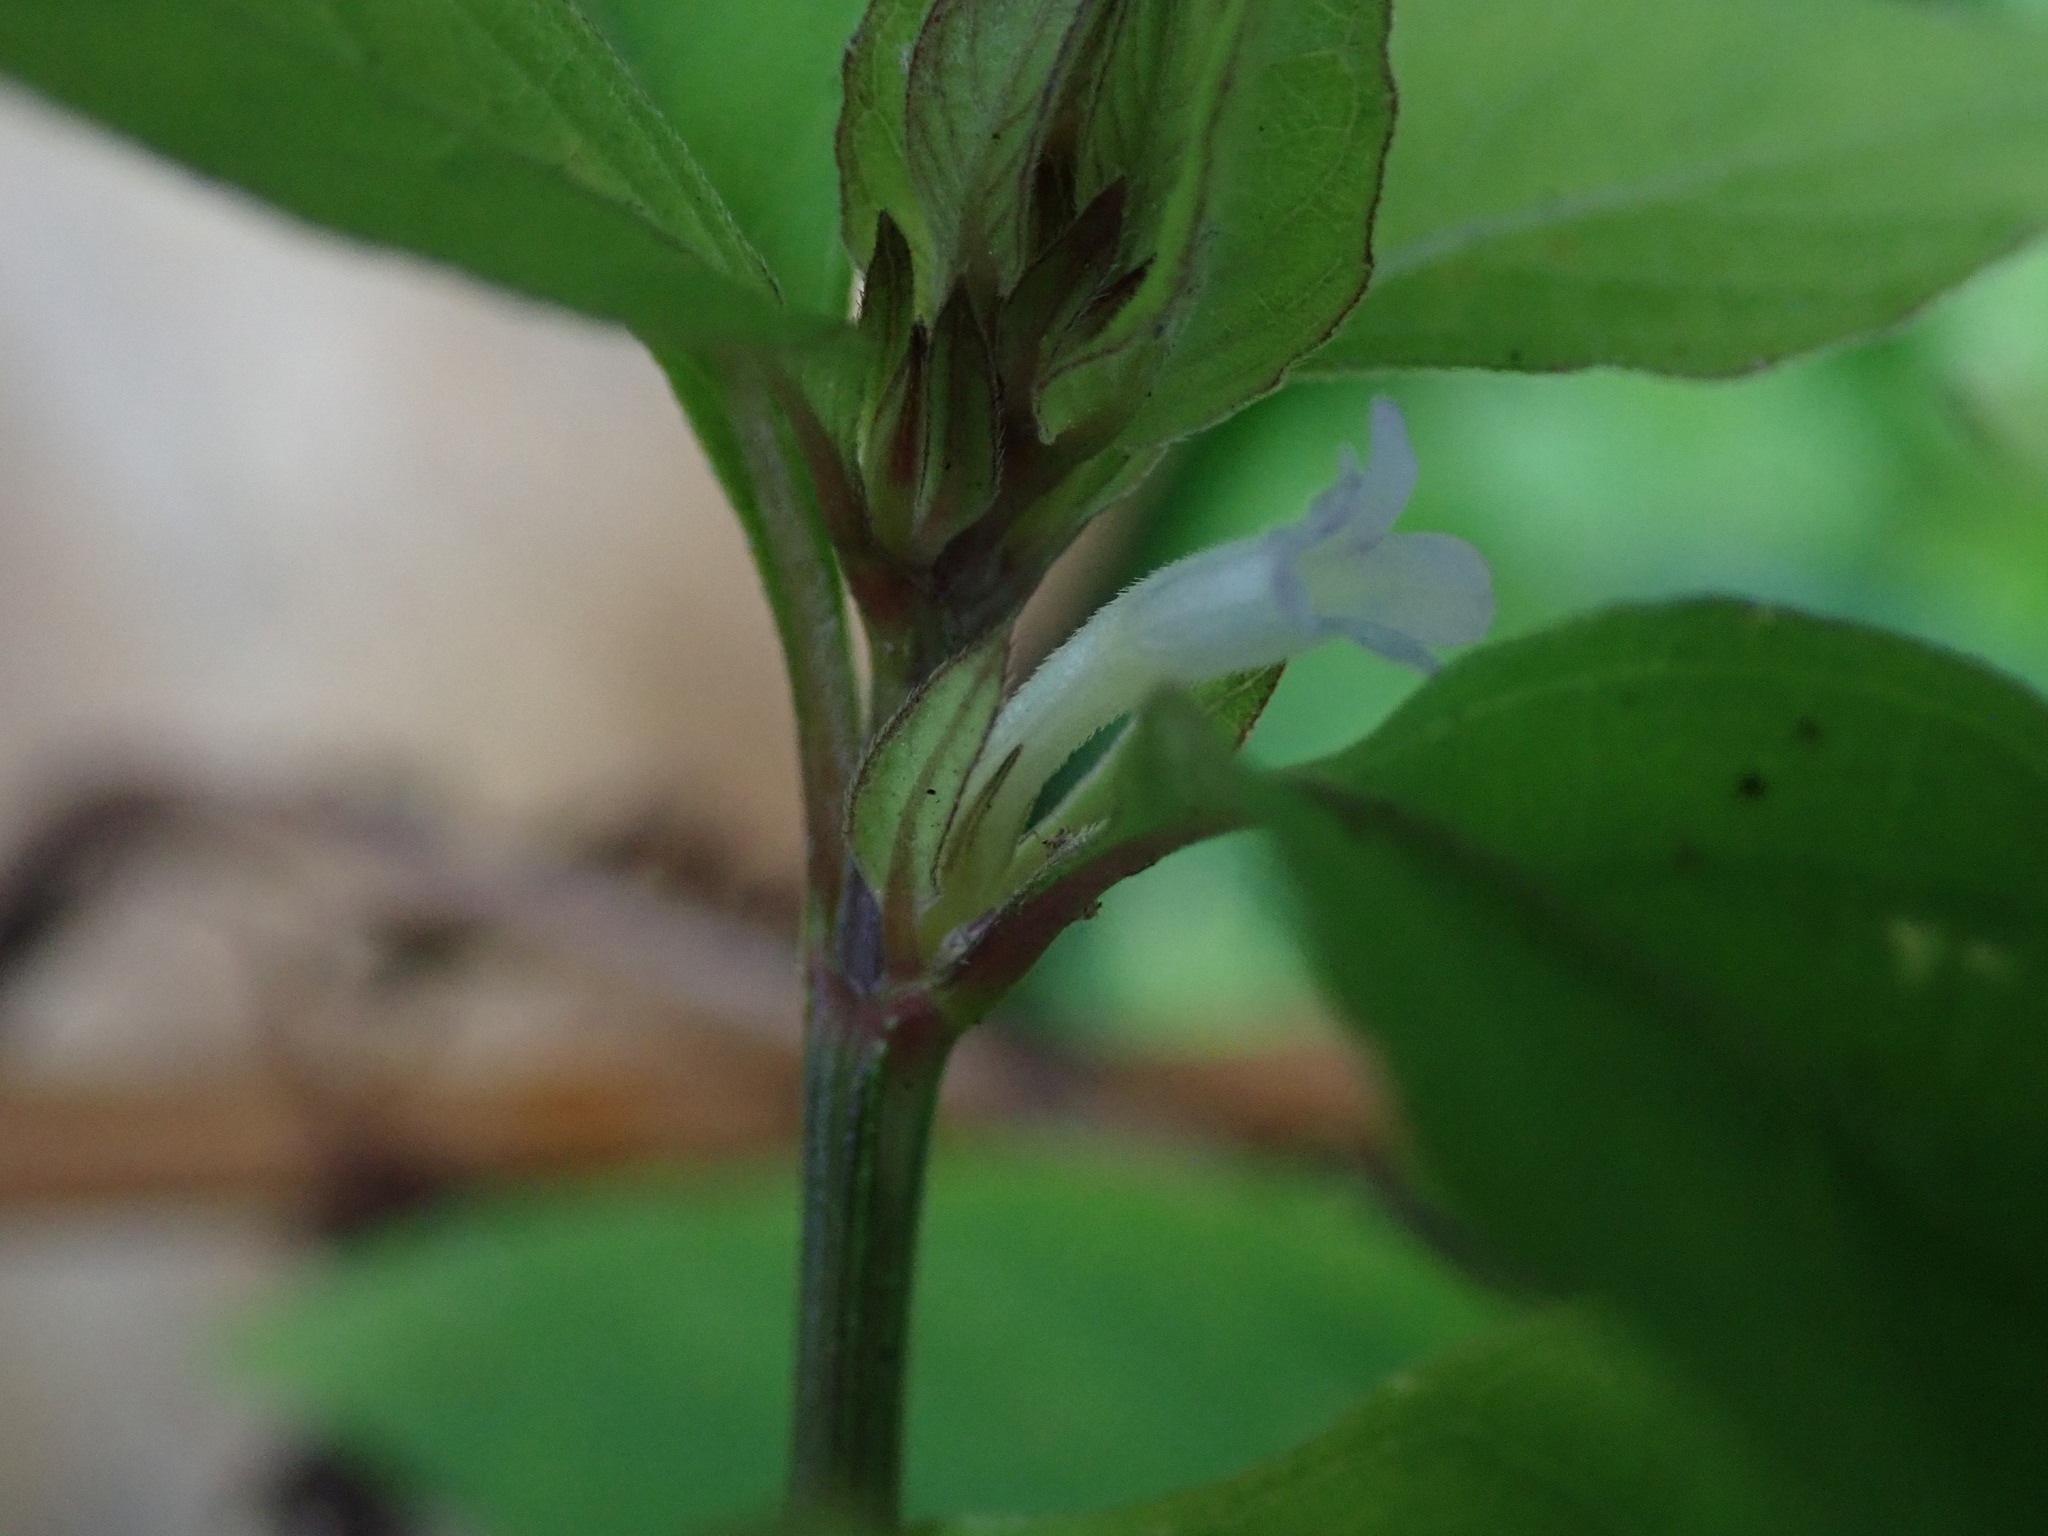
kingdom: Plantae
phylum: Tracheophyta
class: Magnoliopsida
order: Lamiales
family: Acanthaceae
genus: Ruellia
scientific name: Ruellia blechum
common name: Browne's blechum
